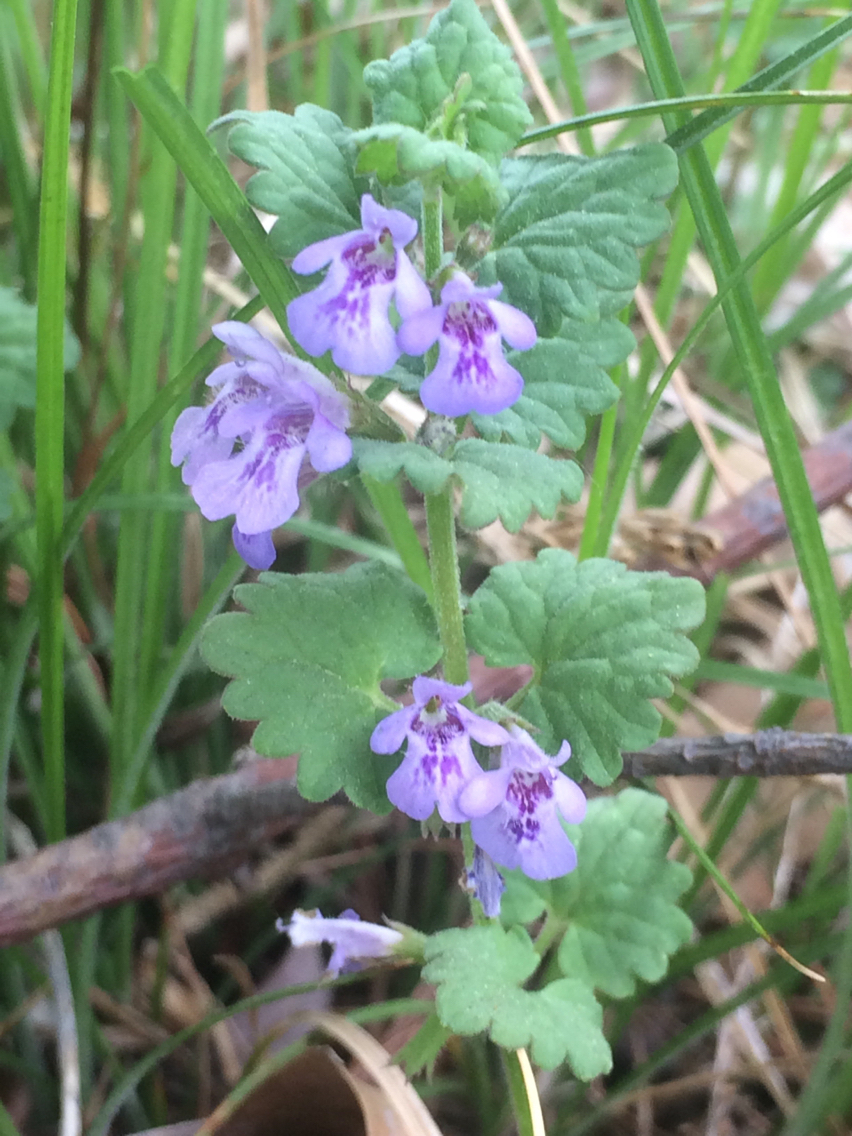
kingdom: Plantae
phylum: Tracheophyta
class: Magnoliopsida
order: Lamiales
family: Lamiaceae
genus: Glechoma
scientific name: Glechoma hederacea
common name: Ground ivy
